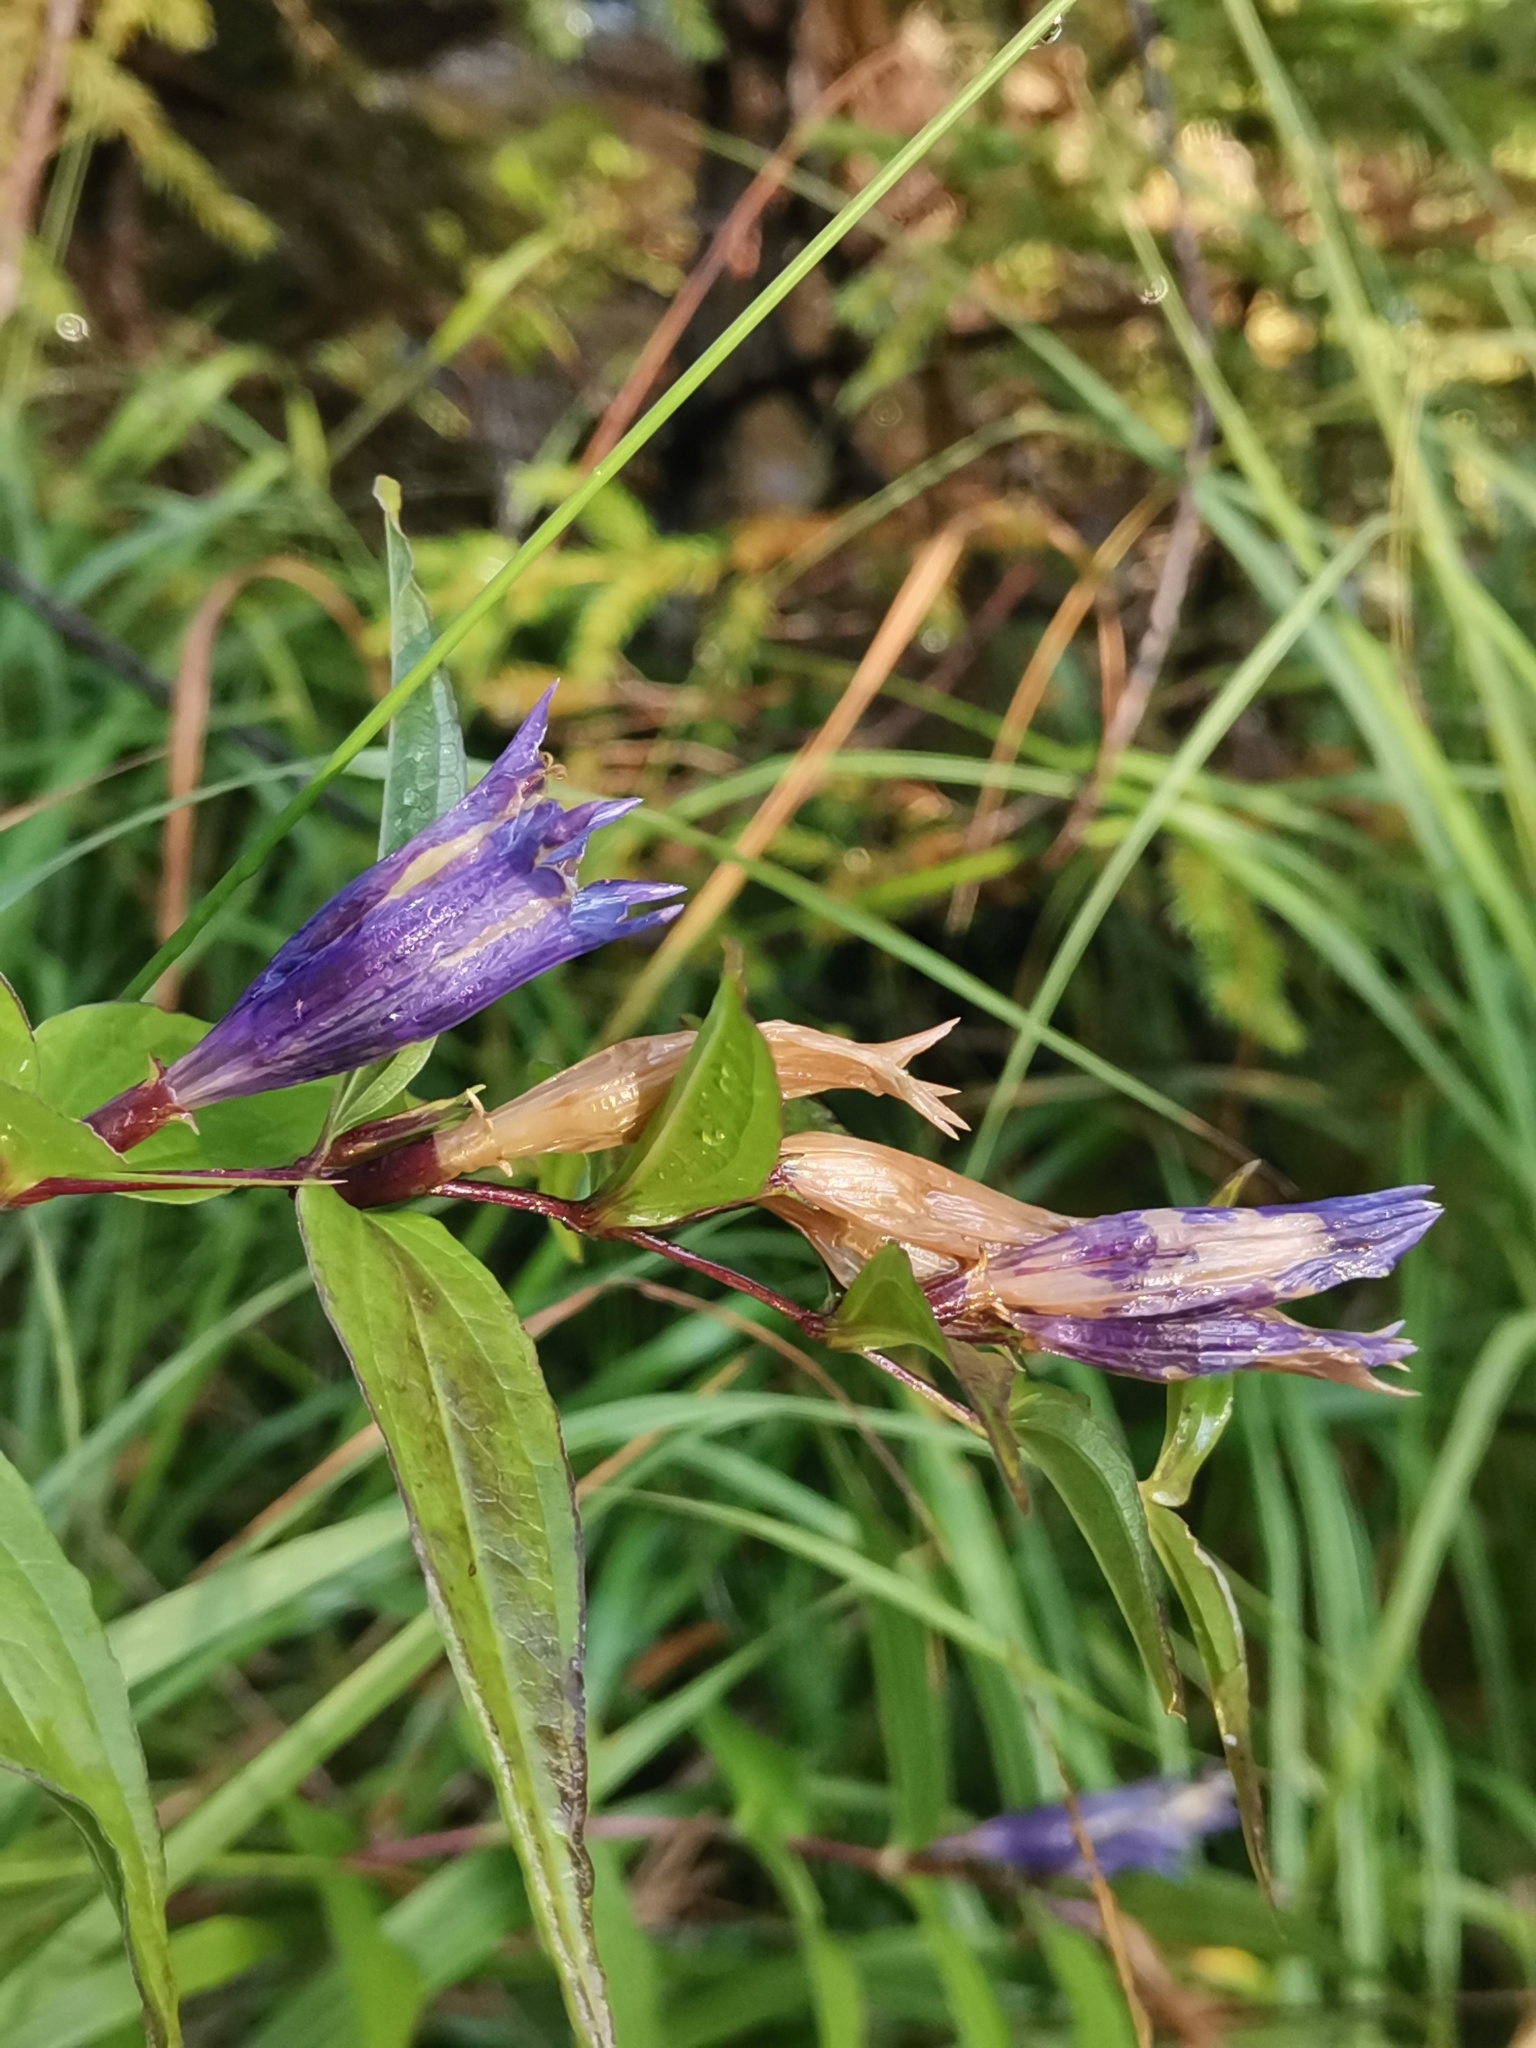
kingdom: Plantae
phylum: Tracheophyta
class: Magnoliopsida
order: Gentianales
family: Gentianaceae
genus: Gentiana
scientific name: Gentiana asclepiadea
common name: Willow gentian
